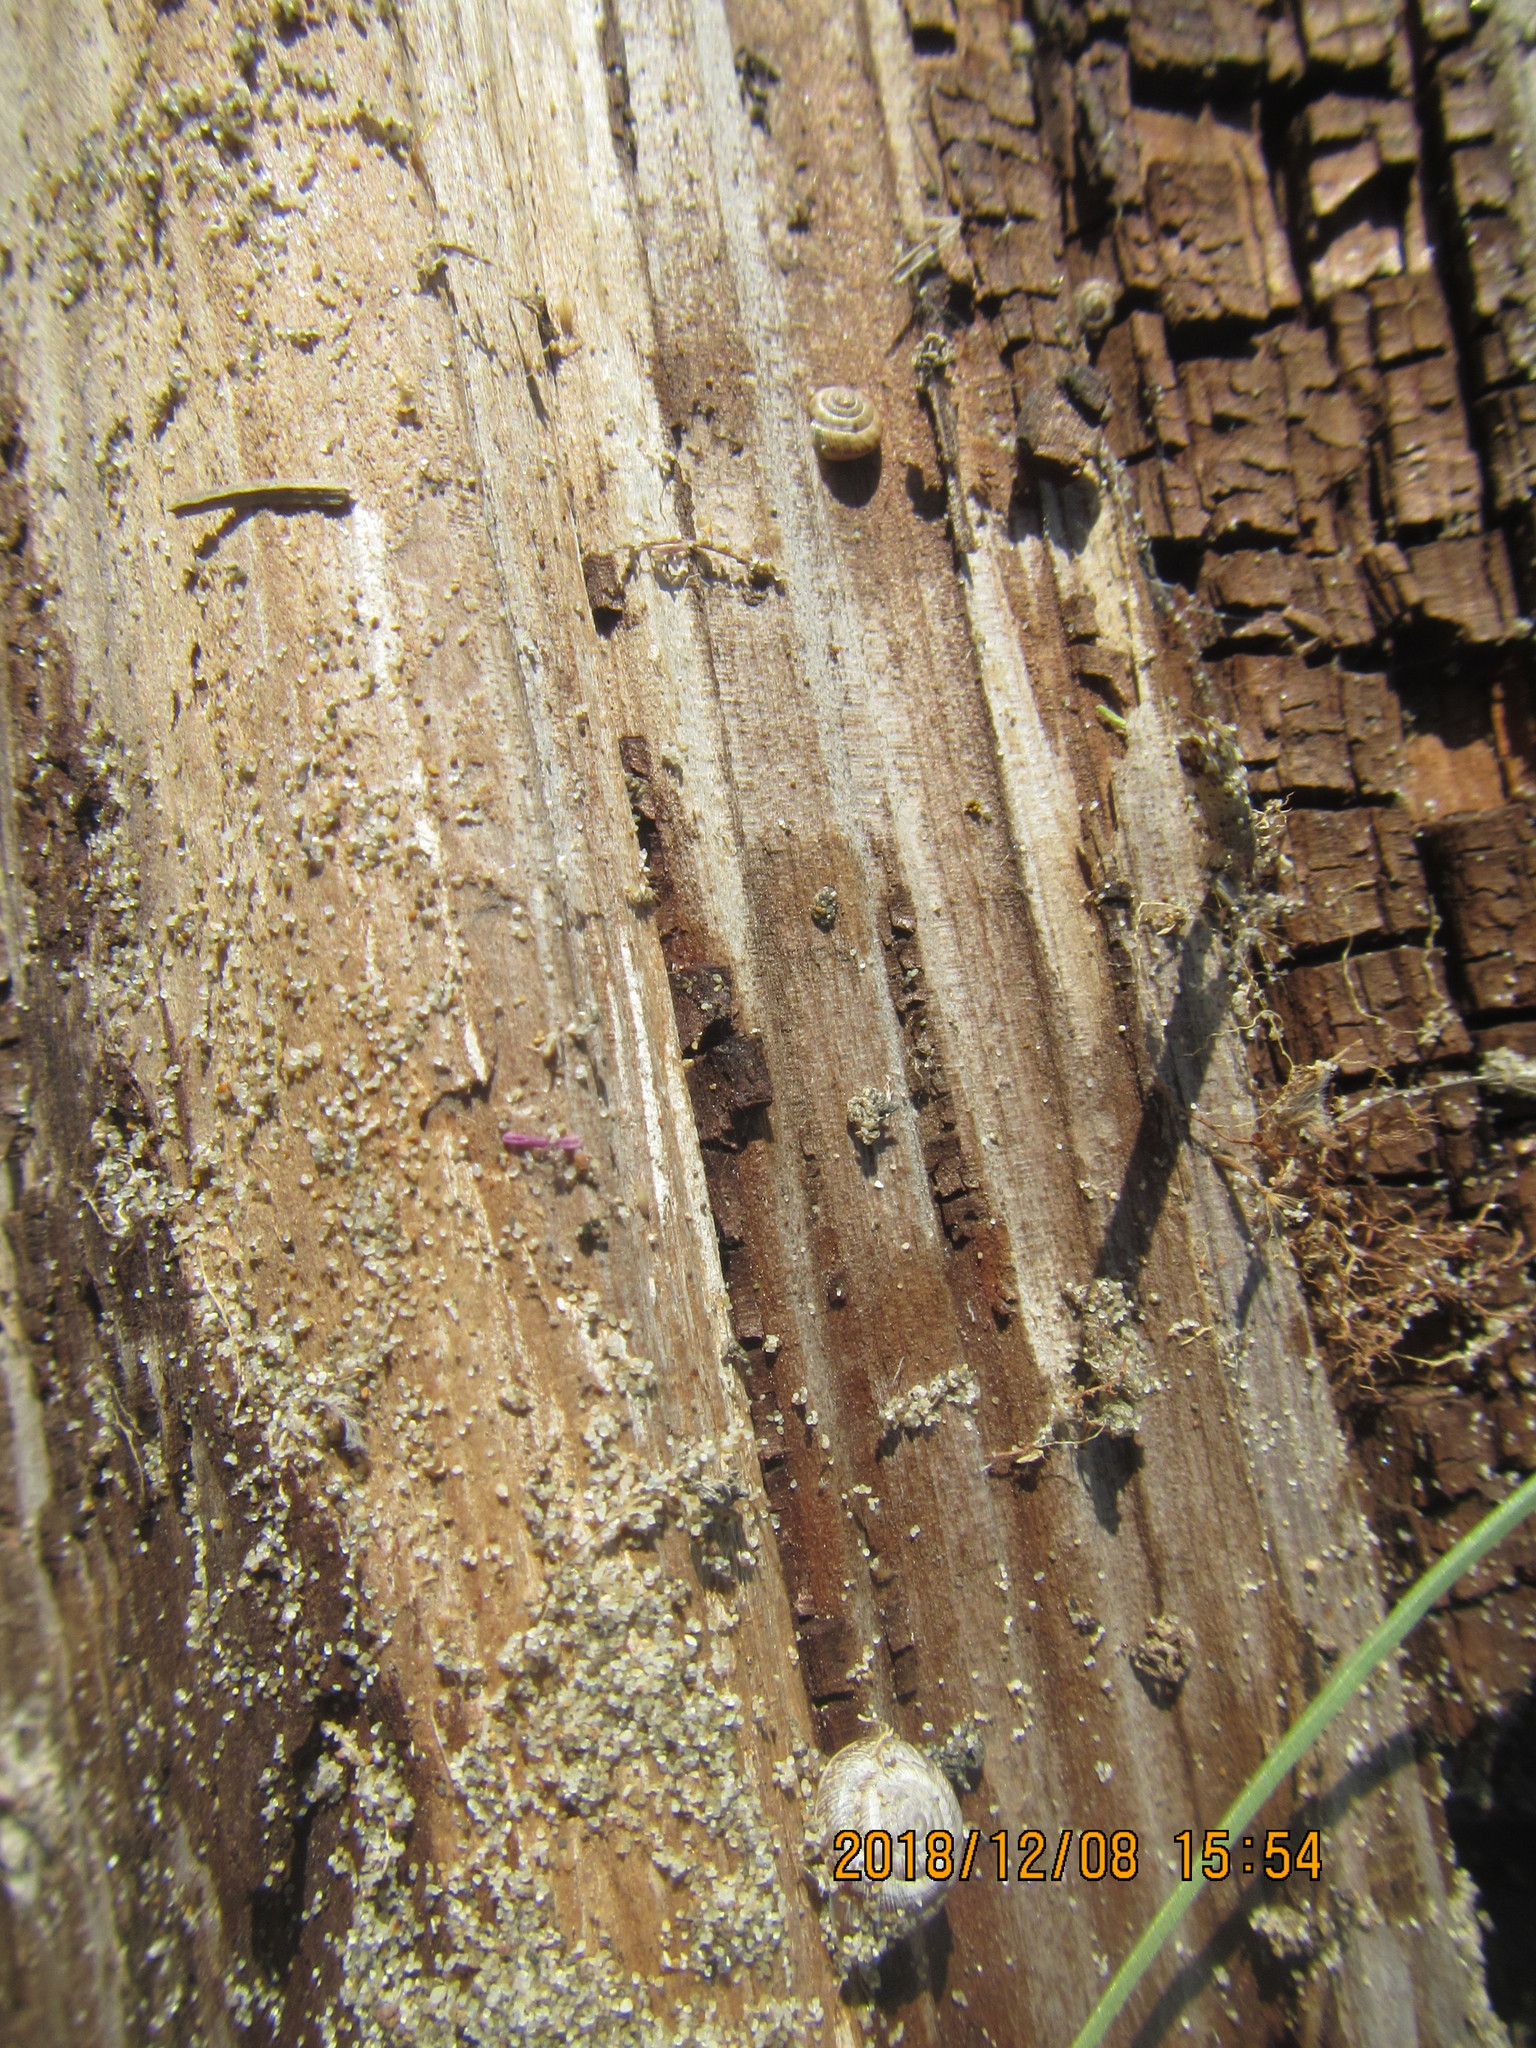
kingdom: Animalia
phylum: Mollusca
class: Gastropoda
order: Stylommatophora
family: Geomitridae
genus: Xeroplexa
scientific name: Xeroplexa intersecta
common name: Wrinkled snail
